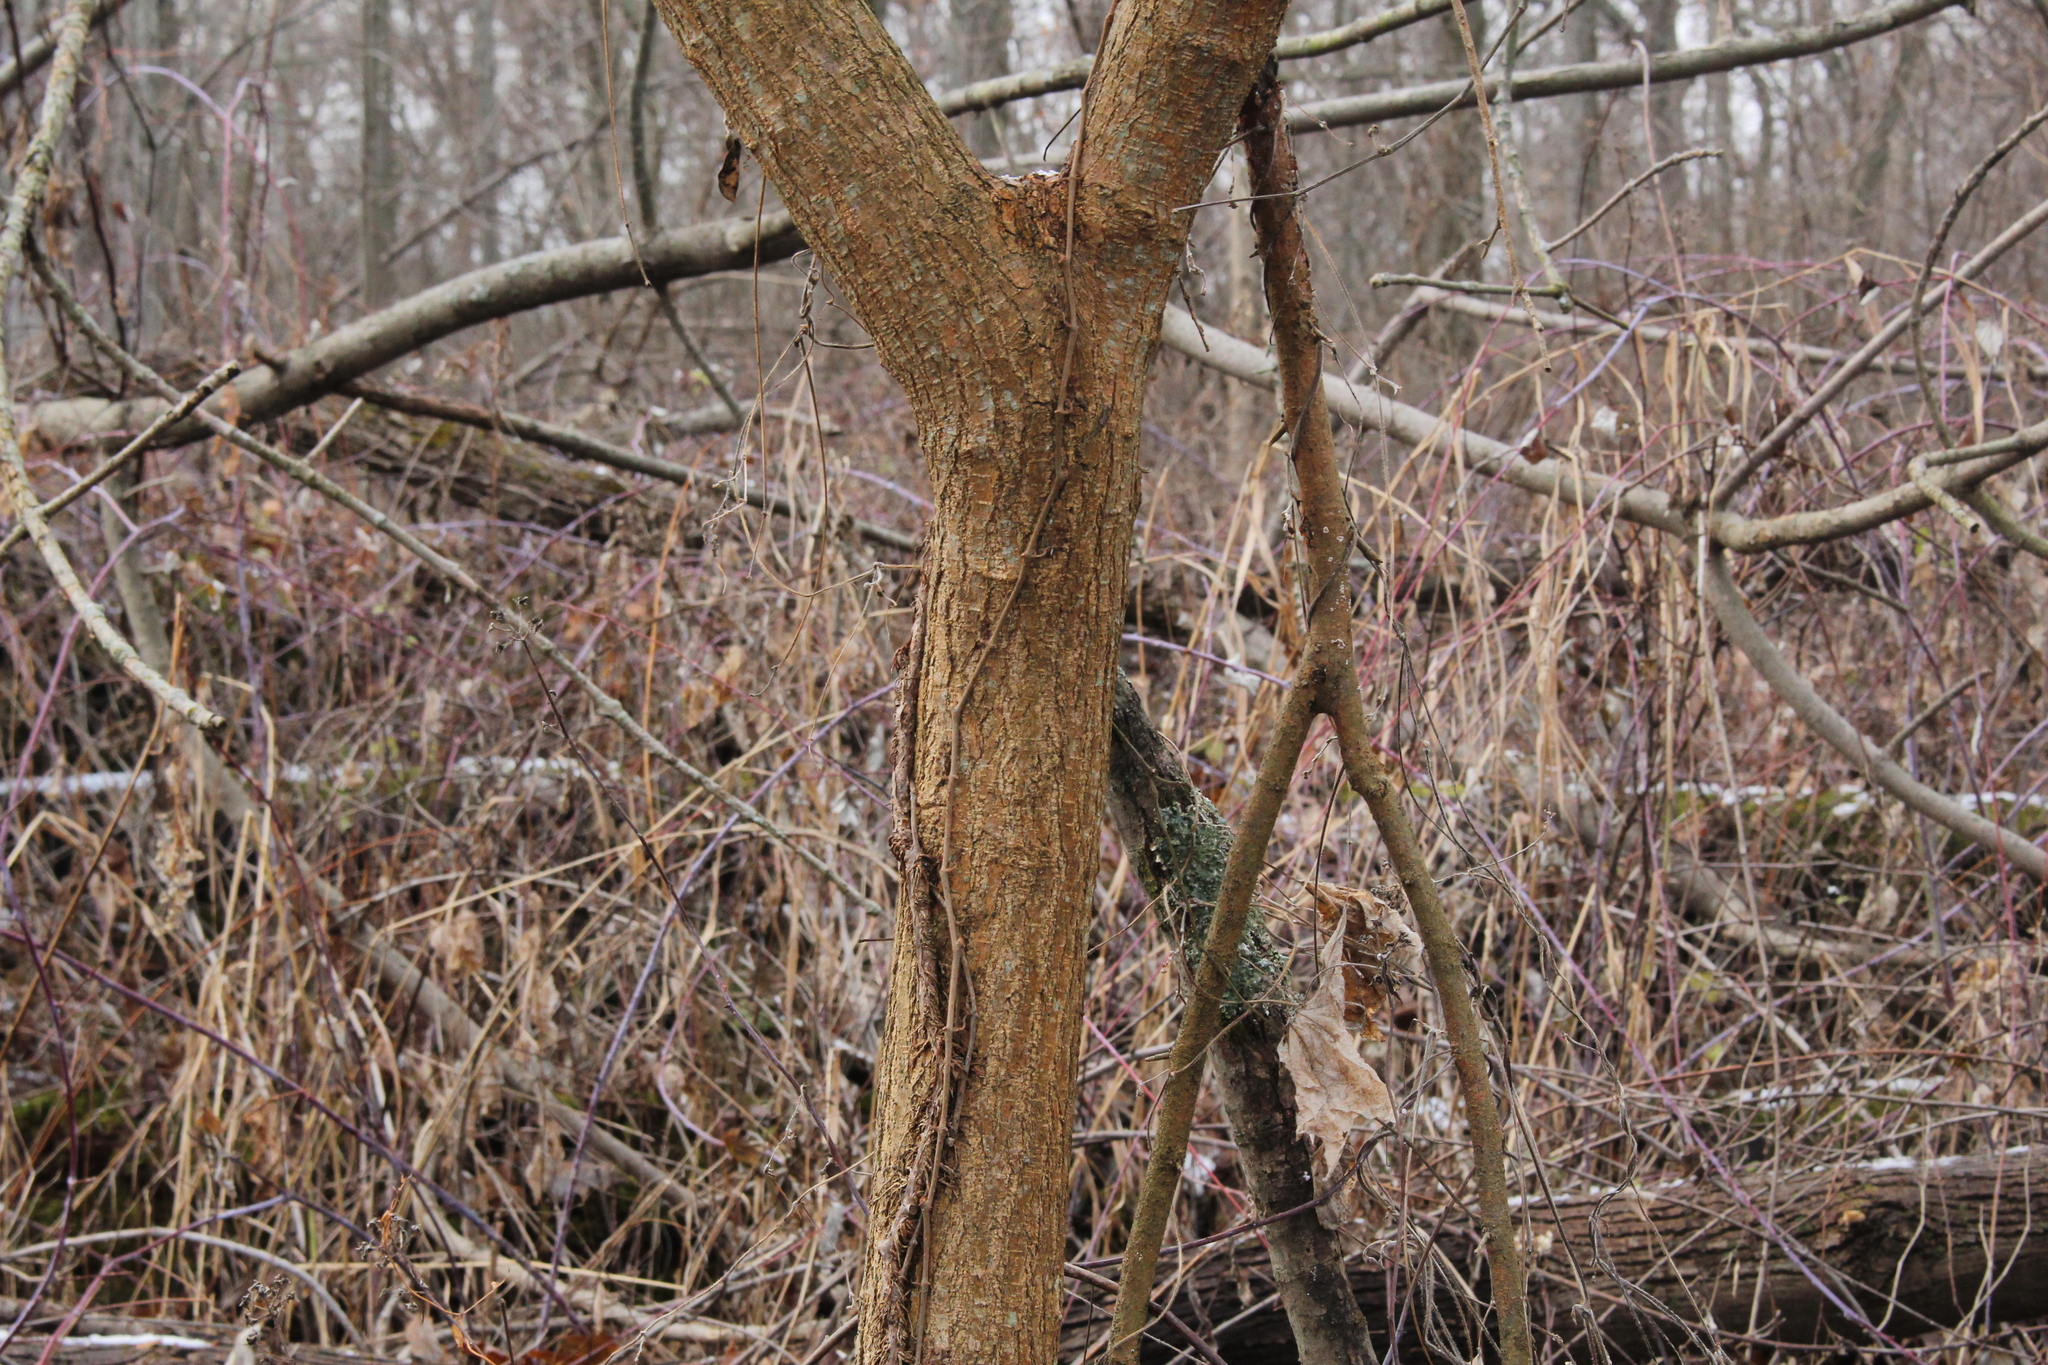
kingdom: Plantae
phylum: Tracheophyta
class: Magnoliopsida
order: Rosales
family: Moraceae
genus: Morus
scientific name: Morus alba
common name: White mulberry
